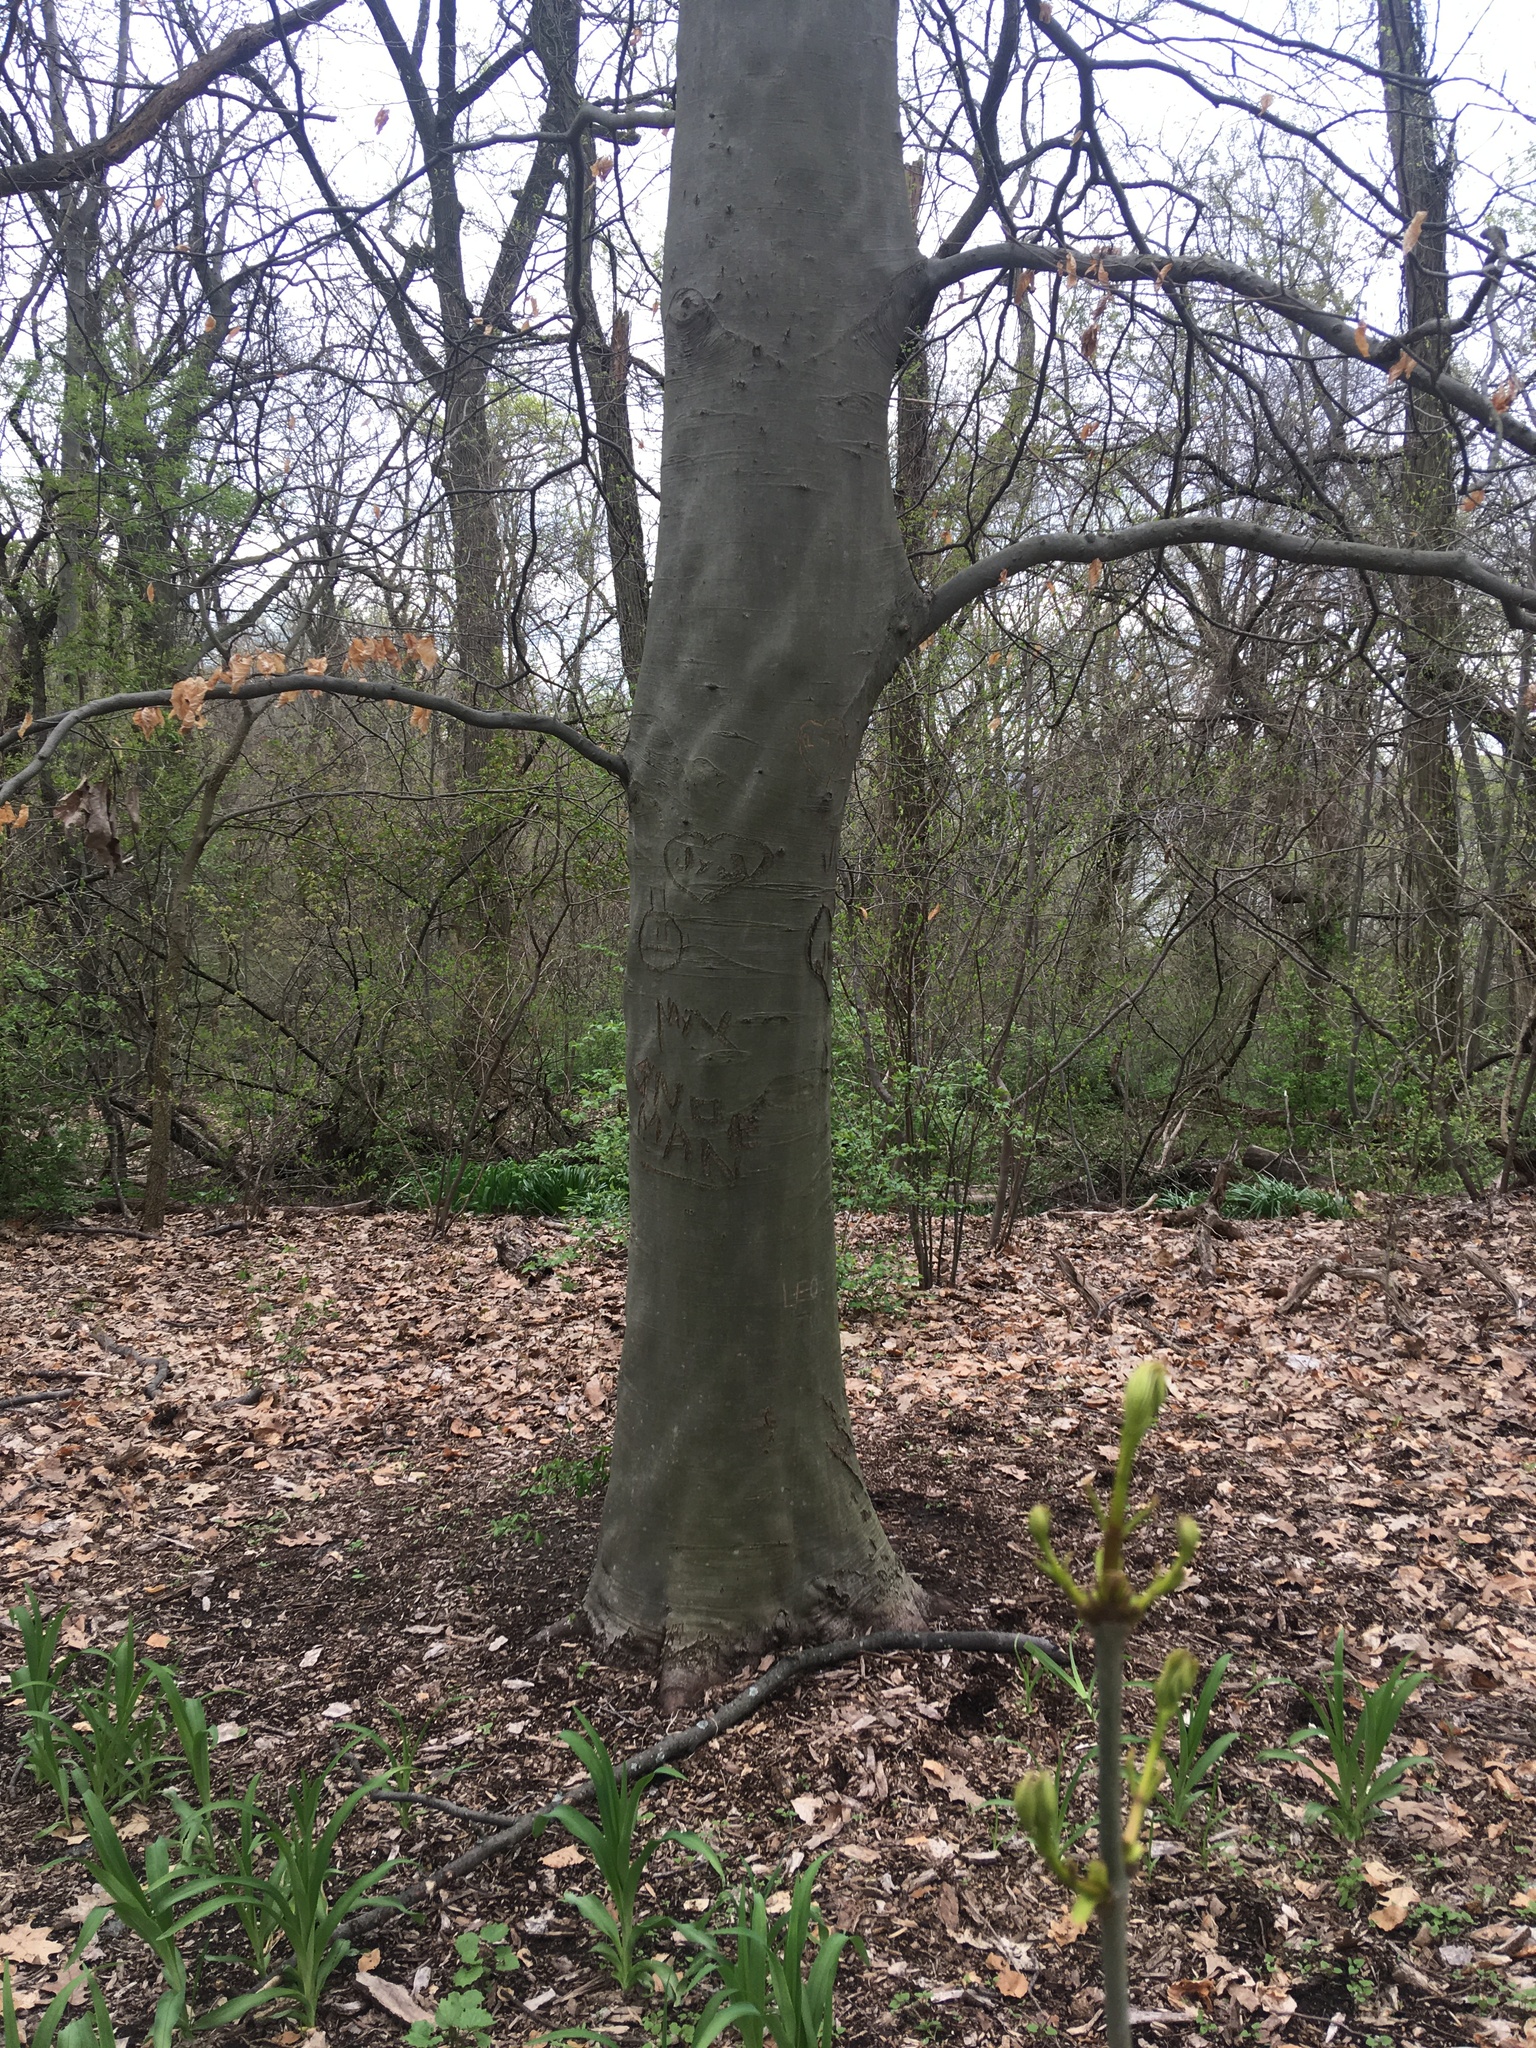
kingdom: Plantae
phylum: Tracheophyta
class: Magnoliopsida
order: Fagales
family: Fagaceae
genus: Fagus
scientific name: Fagus grandifolia
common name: American beech
